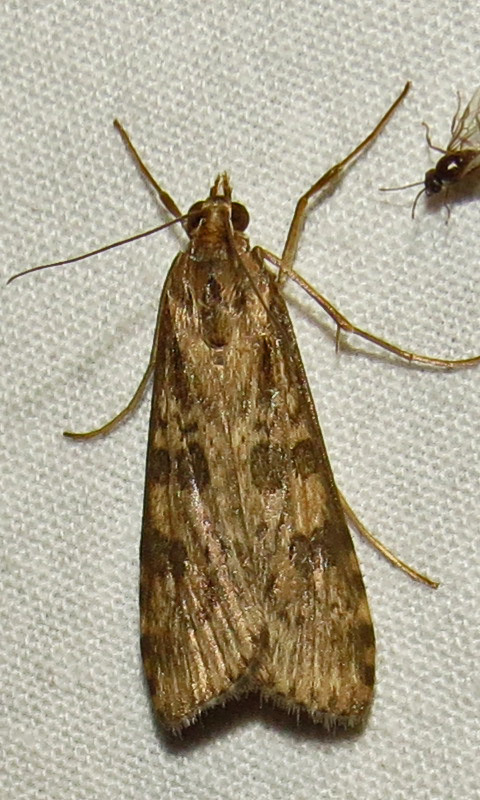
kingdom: Animalia
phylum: Arthropoda
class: Insecta
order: Lepidoptera
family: Crambidae
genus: Nomophila
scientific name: Nomophila nearctica
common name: American rush veneer
